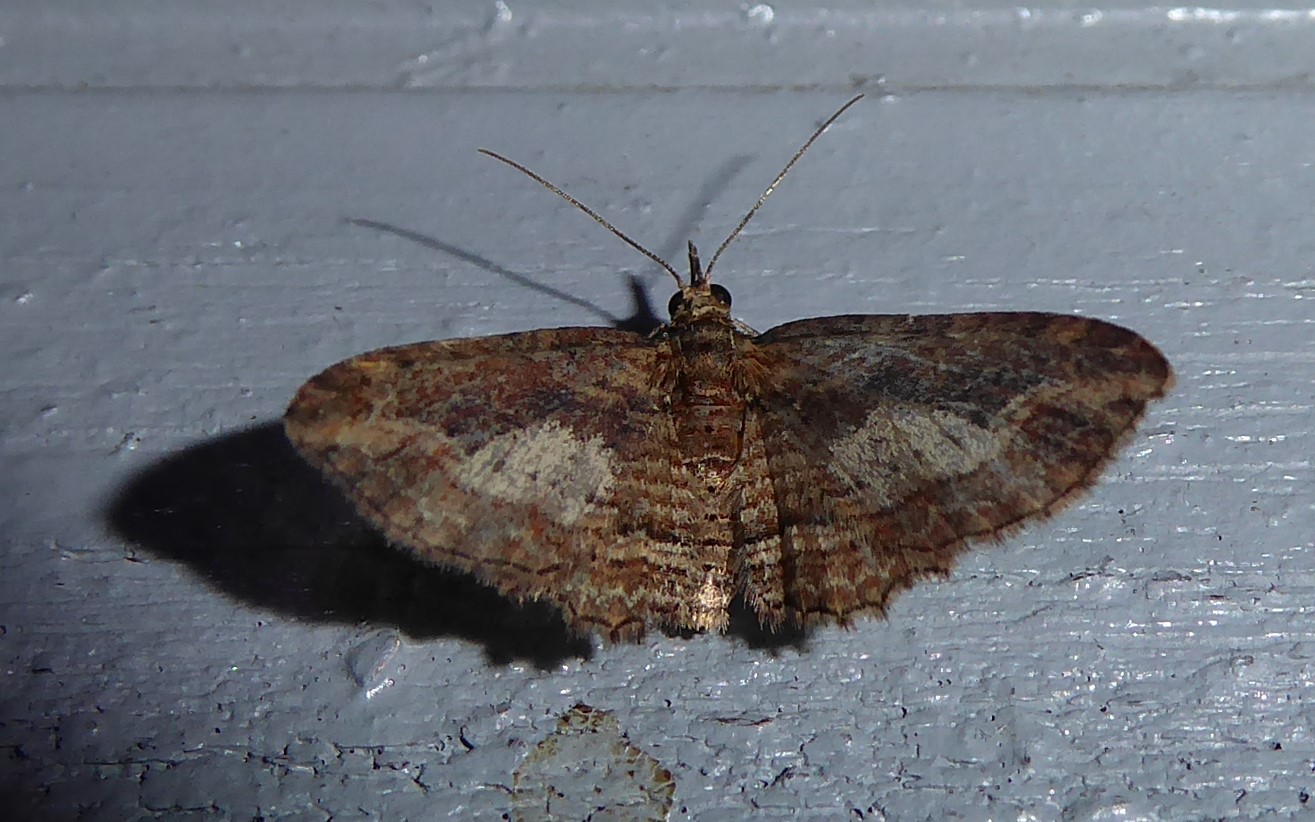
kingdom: Animalia
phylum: Arthropoda
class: Insecta
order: Lepidoptera
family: Geometridae
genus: Chloroclystis
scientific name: Chloroclystis filata
